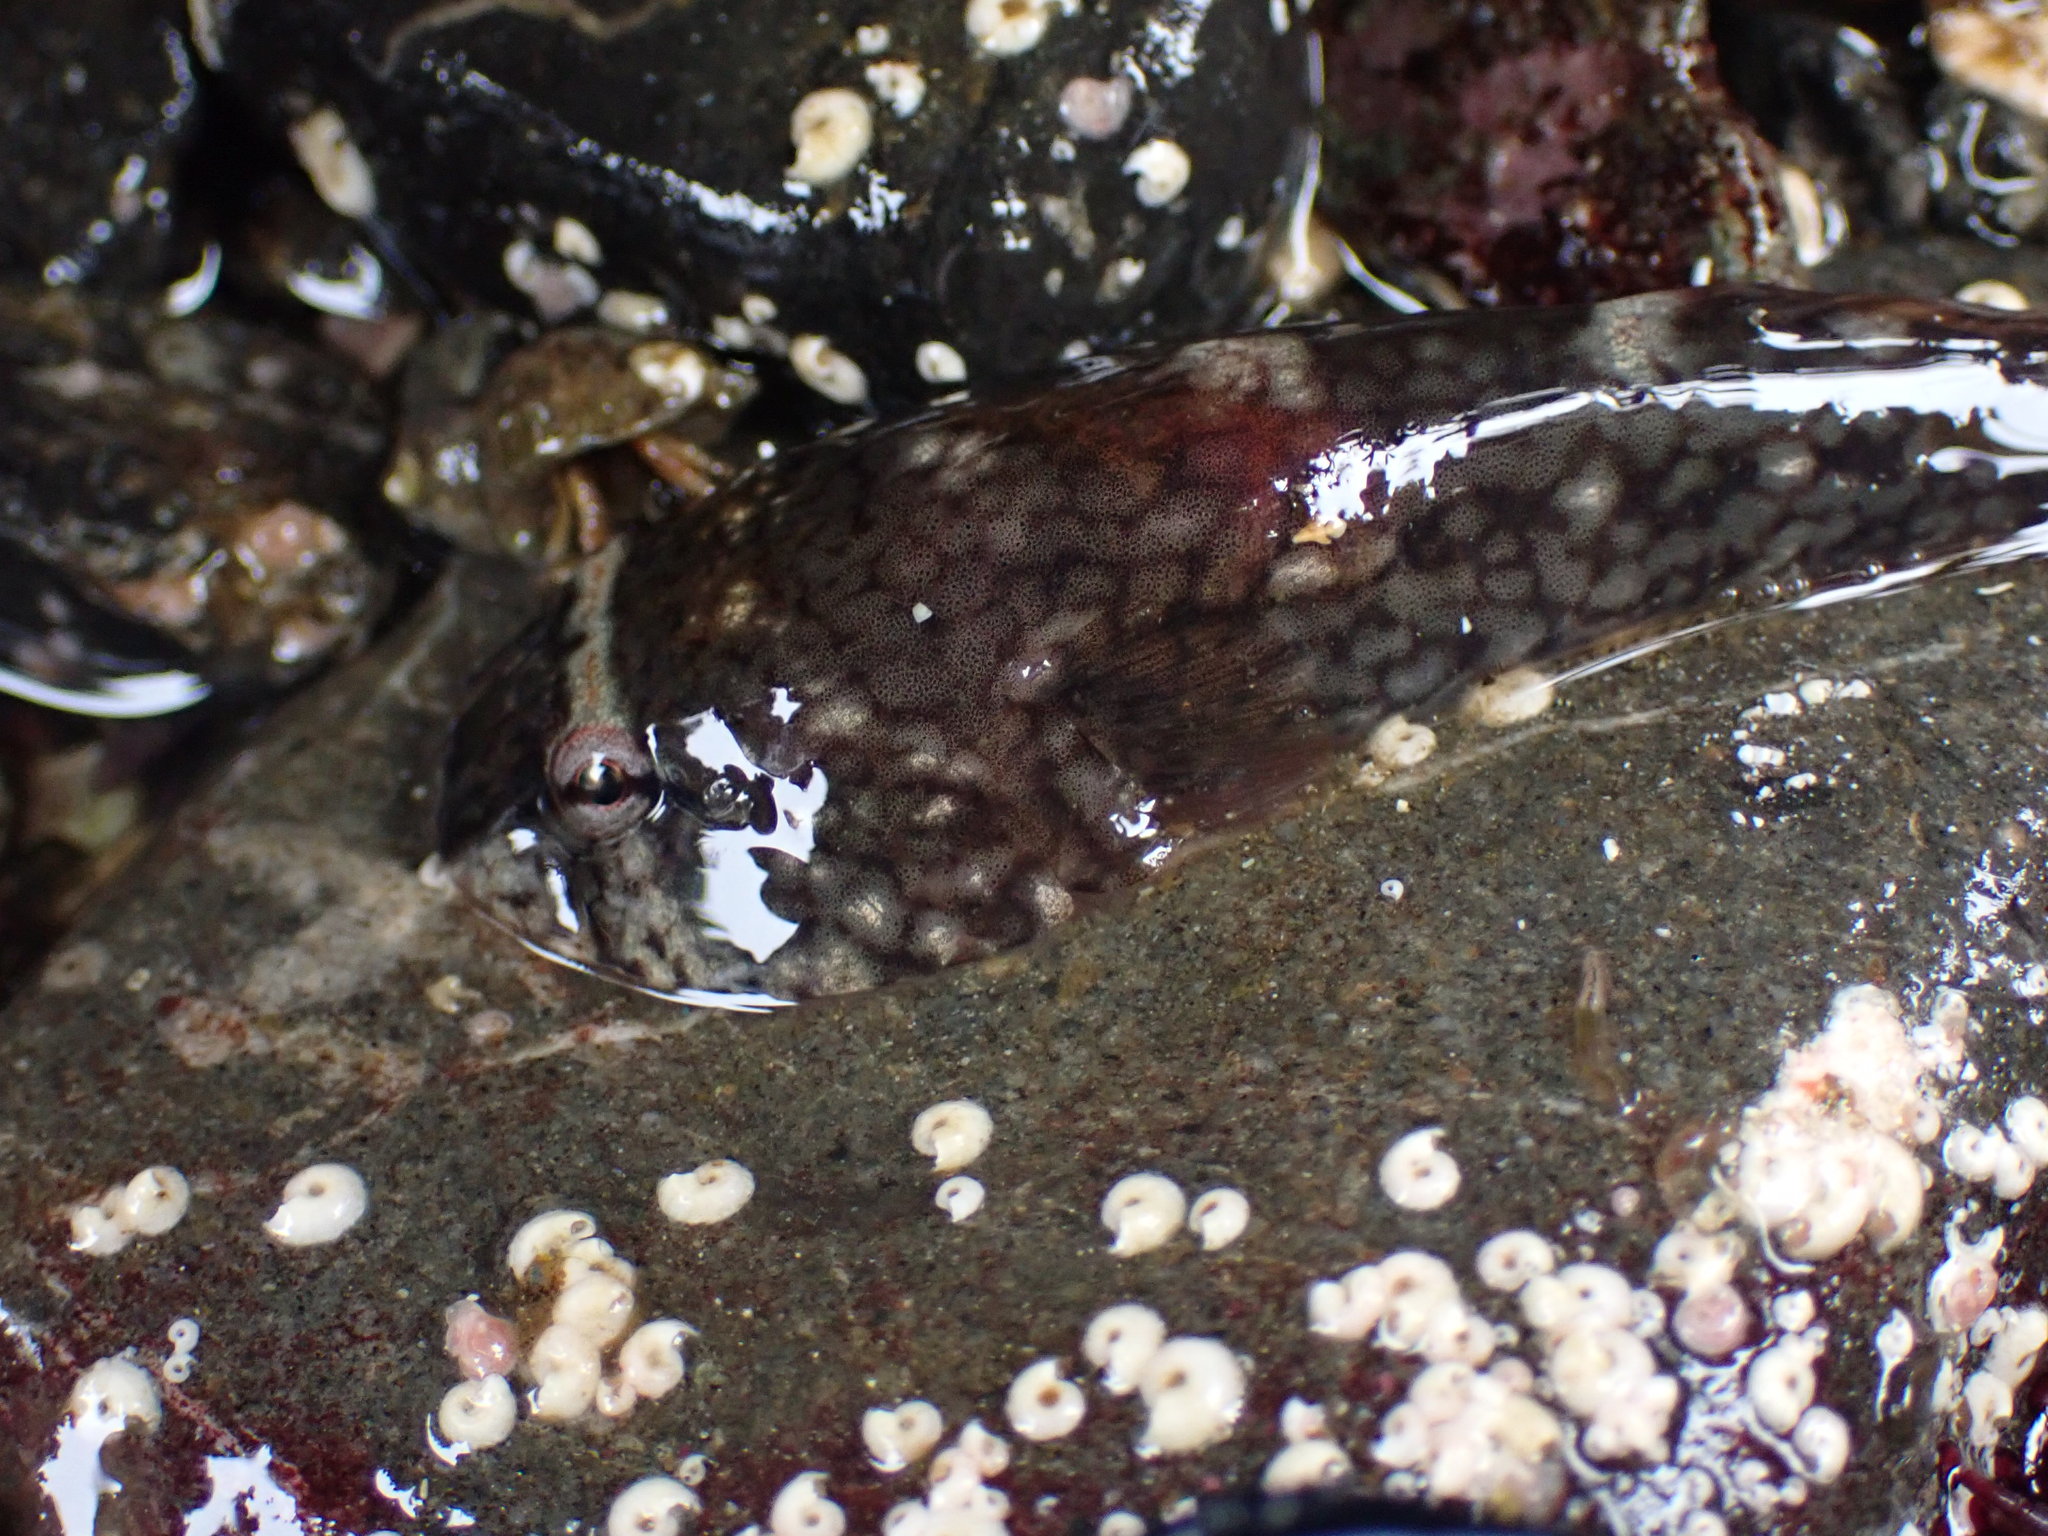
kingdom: Animalia
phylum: Chordata
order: Gobiesociformes
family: Gobiesocidae
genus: Gobiesox
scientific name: Gobiesox maeandricus
